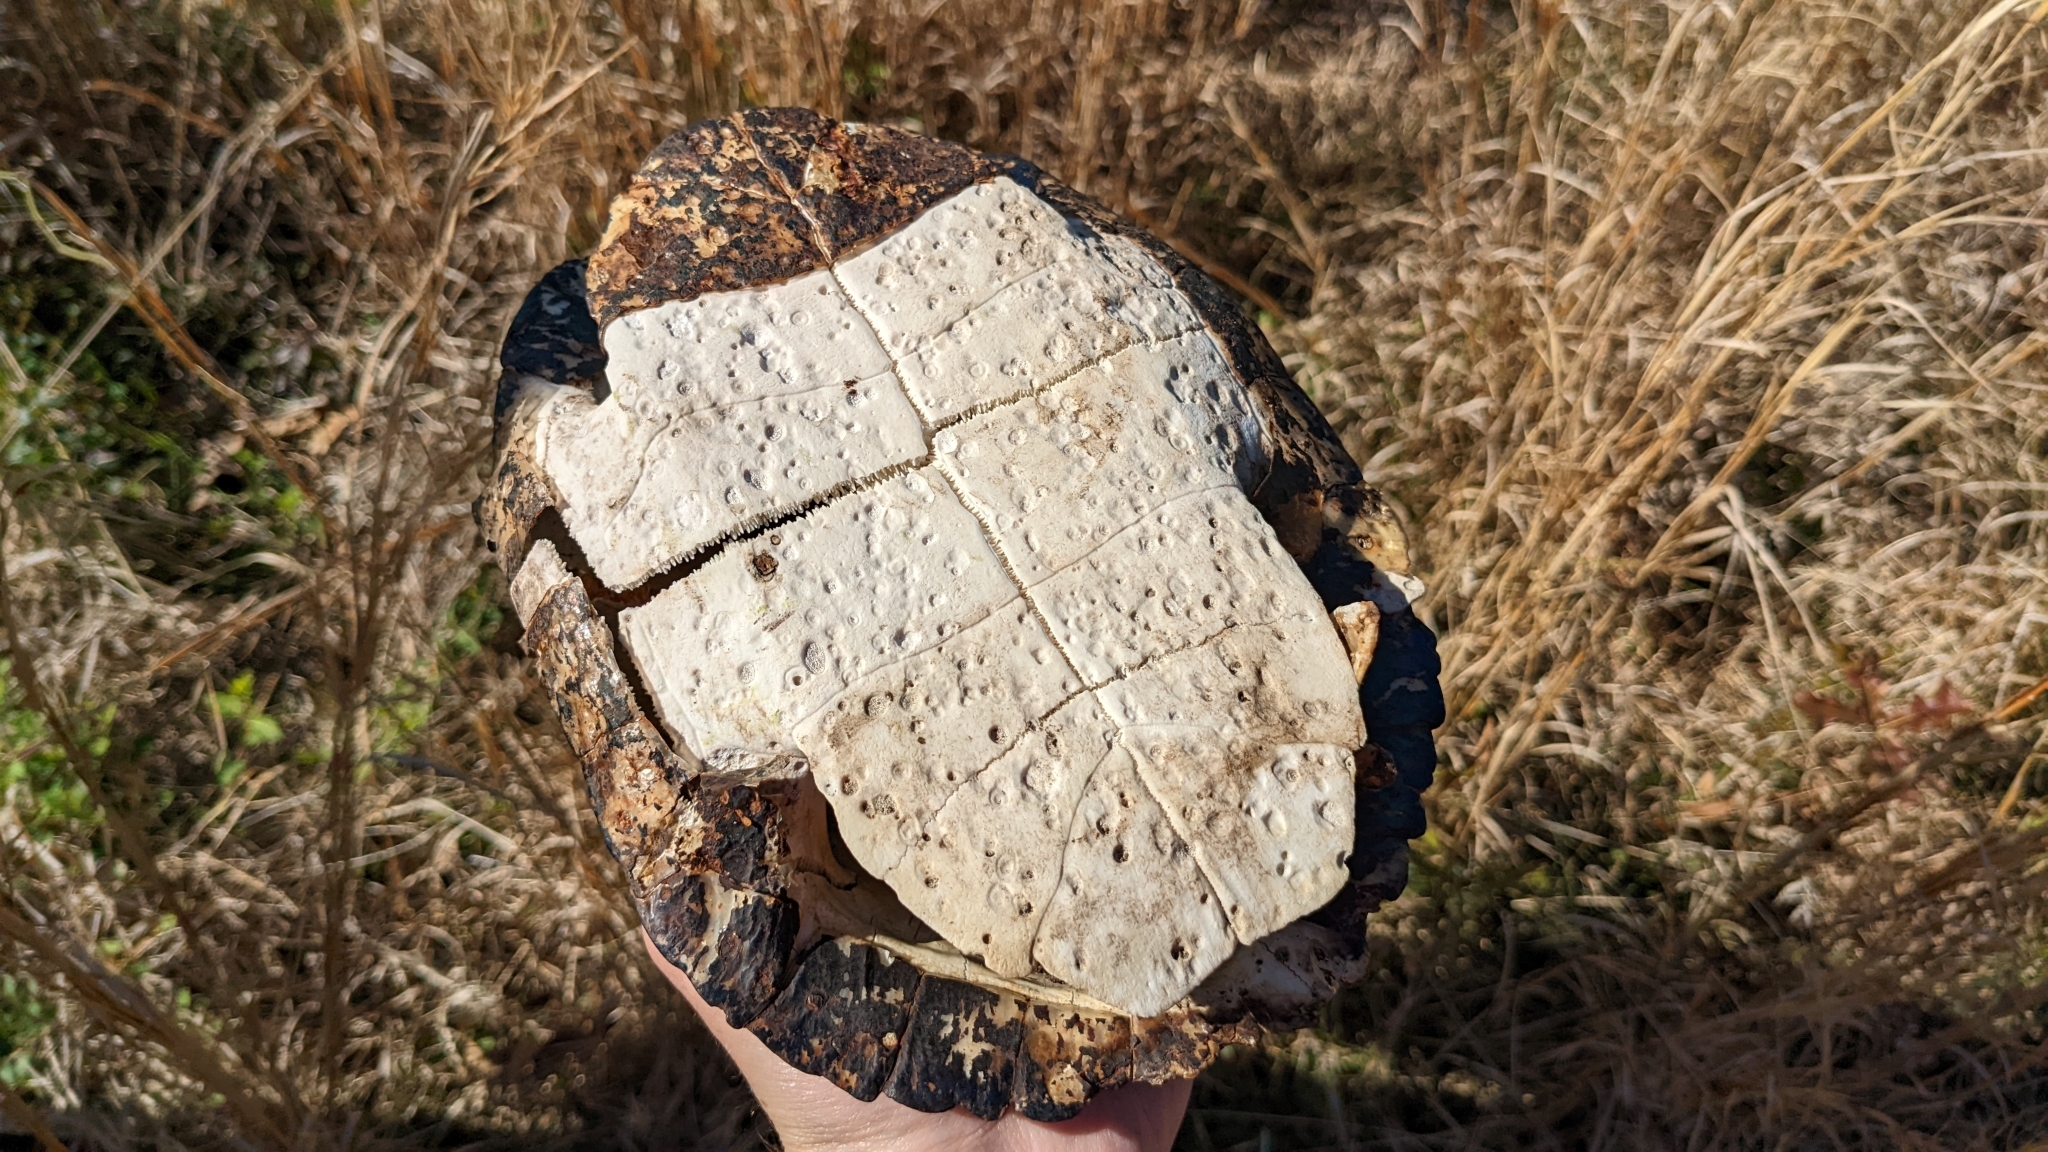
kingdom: Animalia
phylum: Chordata
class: Testudines
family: Emydidae
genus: Trachemys
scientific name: Trachemys scripta
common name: Slider
